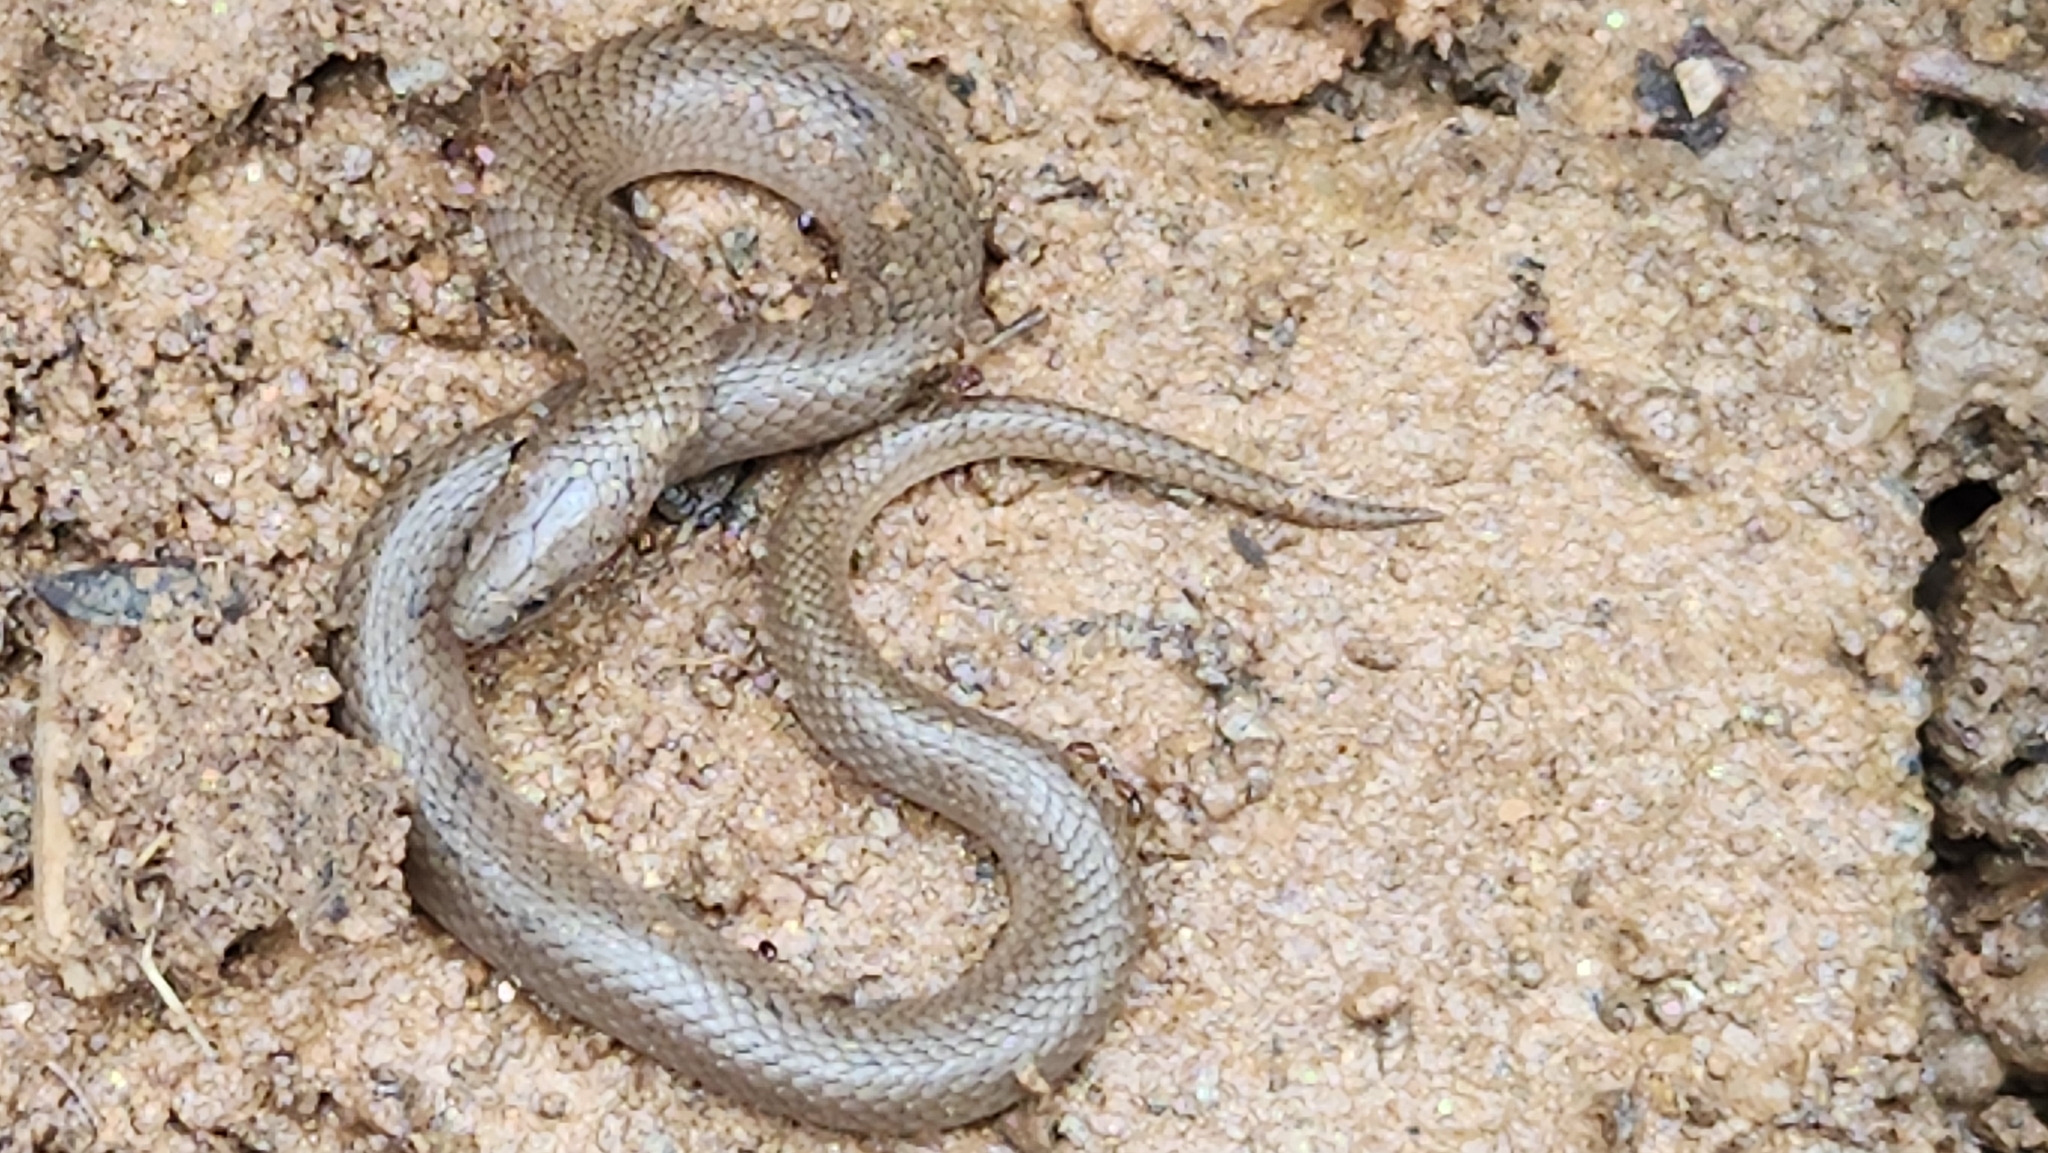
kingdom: Animalia
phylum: Chordata
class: Squamata
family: Colubridae
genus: Virginia
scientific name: Virginia valeriae
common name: Smooth earth snake
